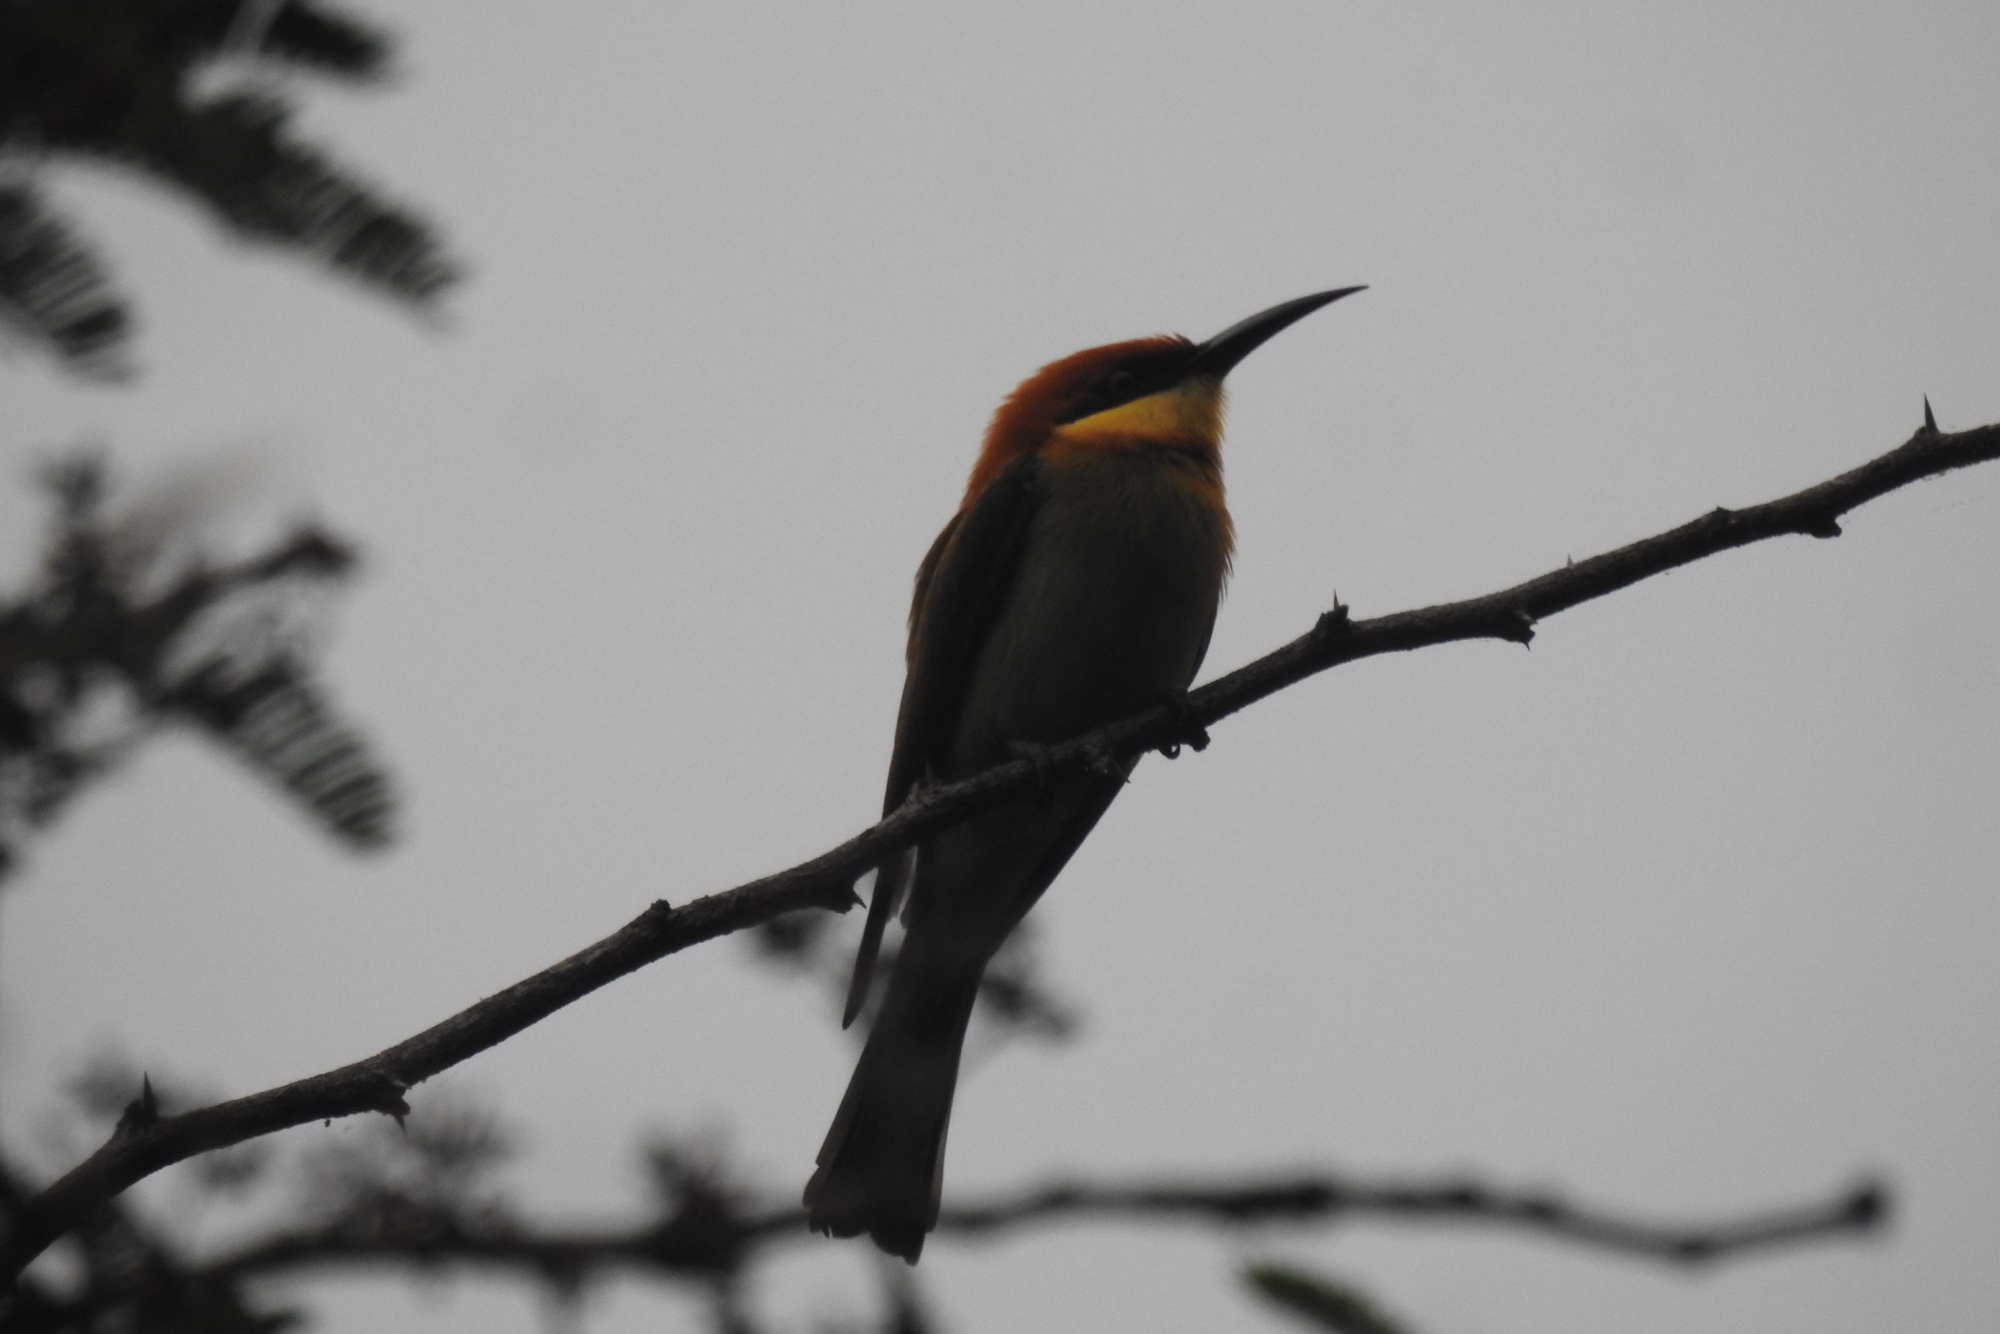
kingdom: Animalia
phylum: Chordata
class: Aves
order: Coraciiformes
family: Meropidae
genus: Merops
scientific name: Merops leschenaulti
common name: Chestnut-headed bee-eater
